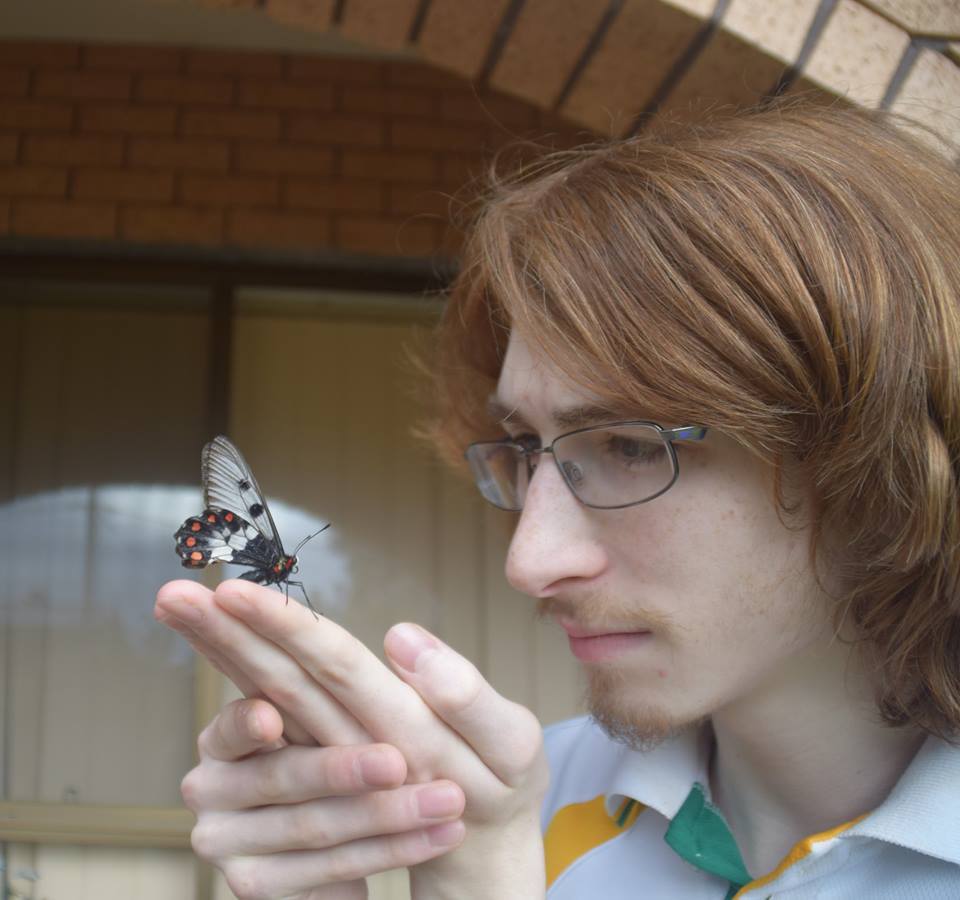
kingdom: Animalia
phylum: Arthropoda
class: Insecta
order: Lepidoptera
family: Papilionidae
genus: Cressida
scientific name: Cressida cressida
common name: Big greasy
